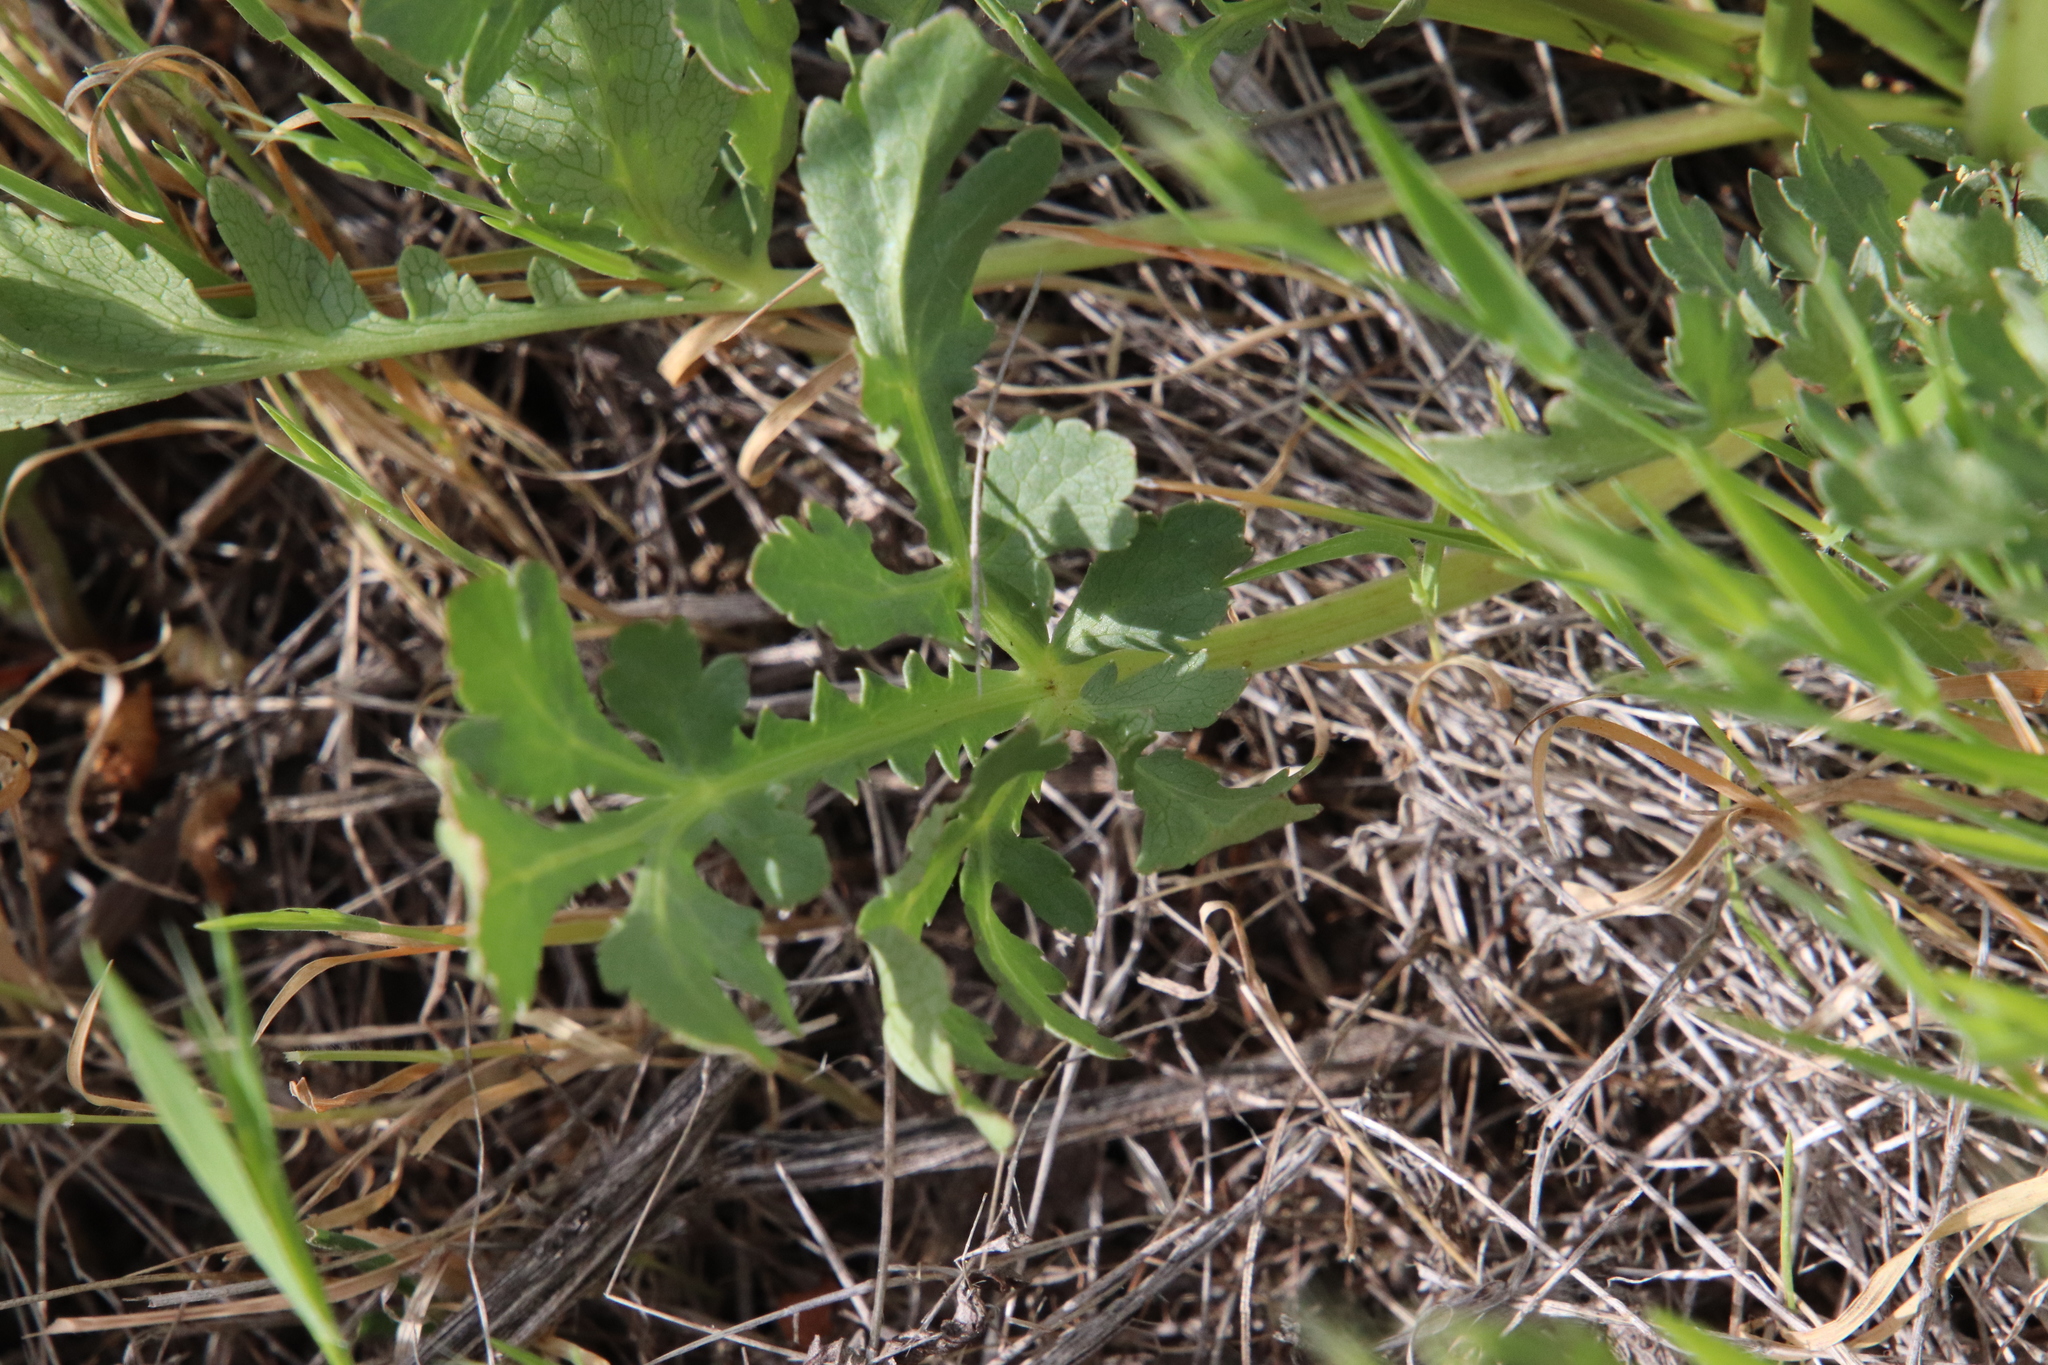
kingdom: Plantae
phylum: Tracheophyta
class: Magnoliopsida
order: Apiales
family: Apiaceae
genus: Sanicula
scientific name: Sanicula bipinnatifida
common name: Shoe-buttons
